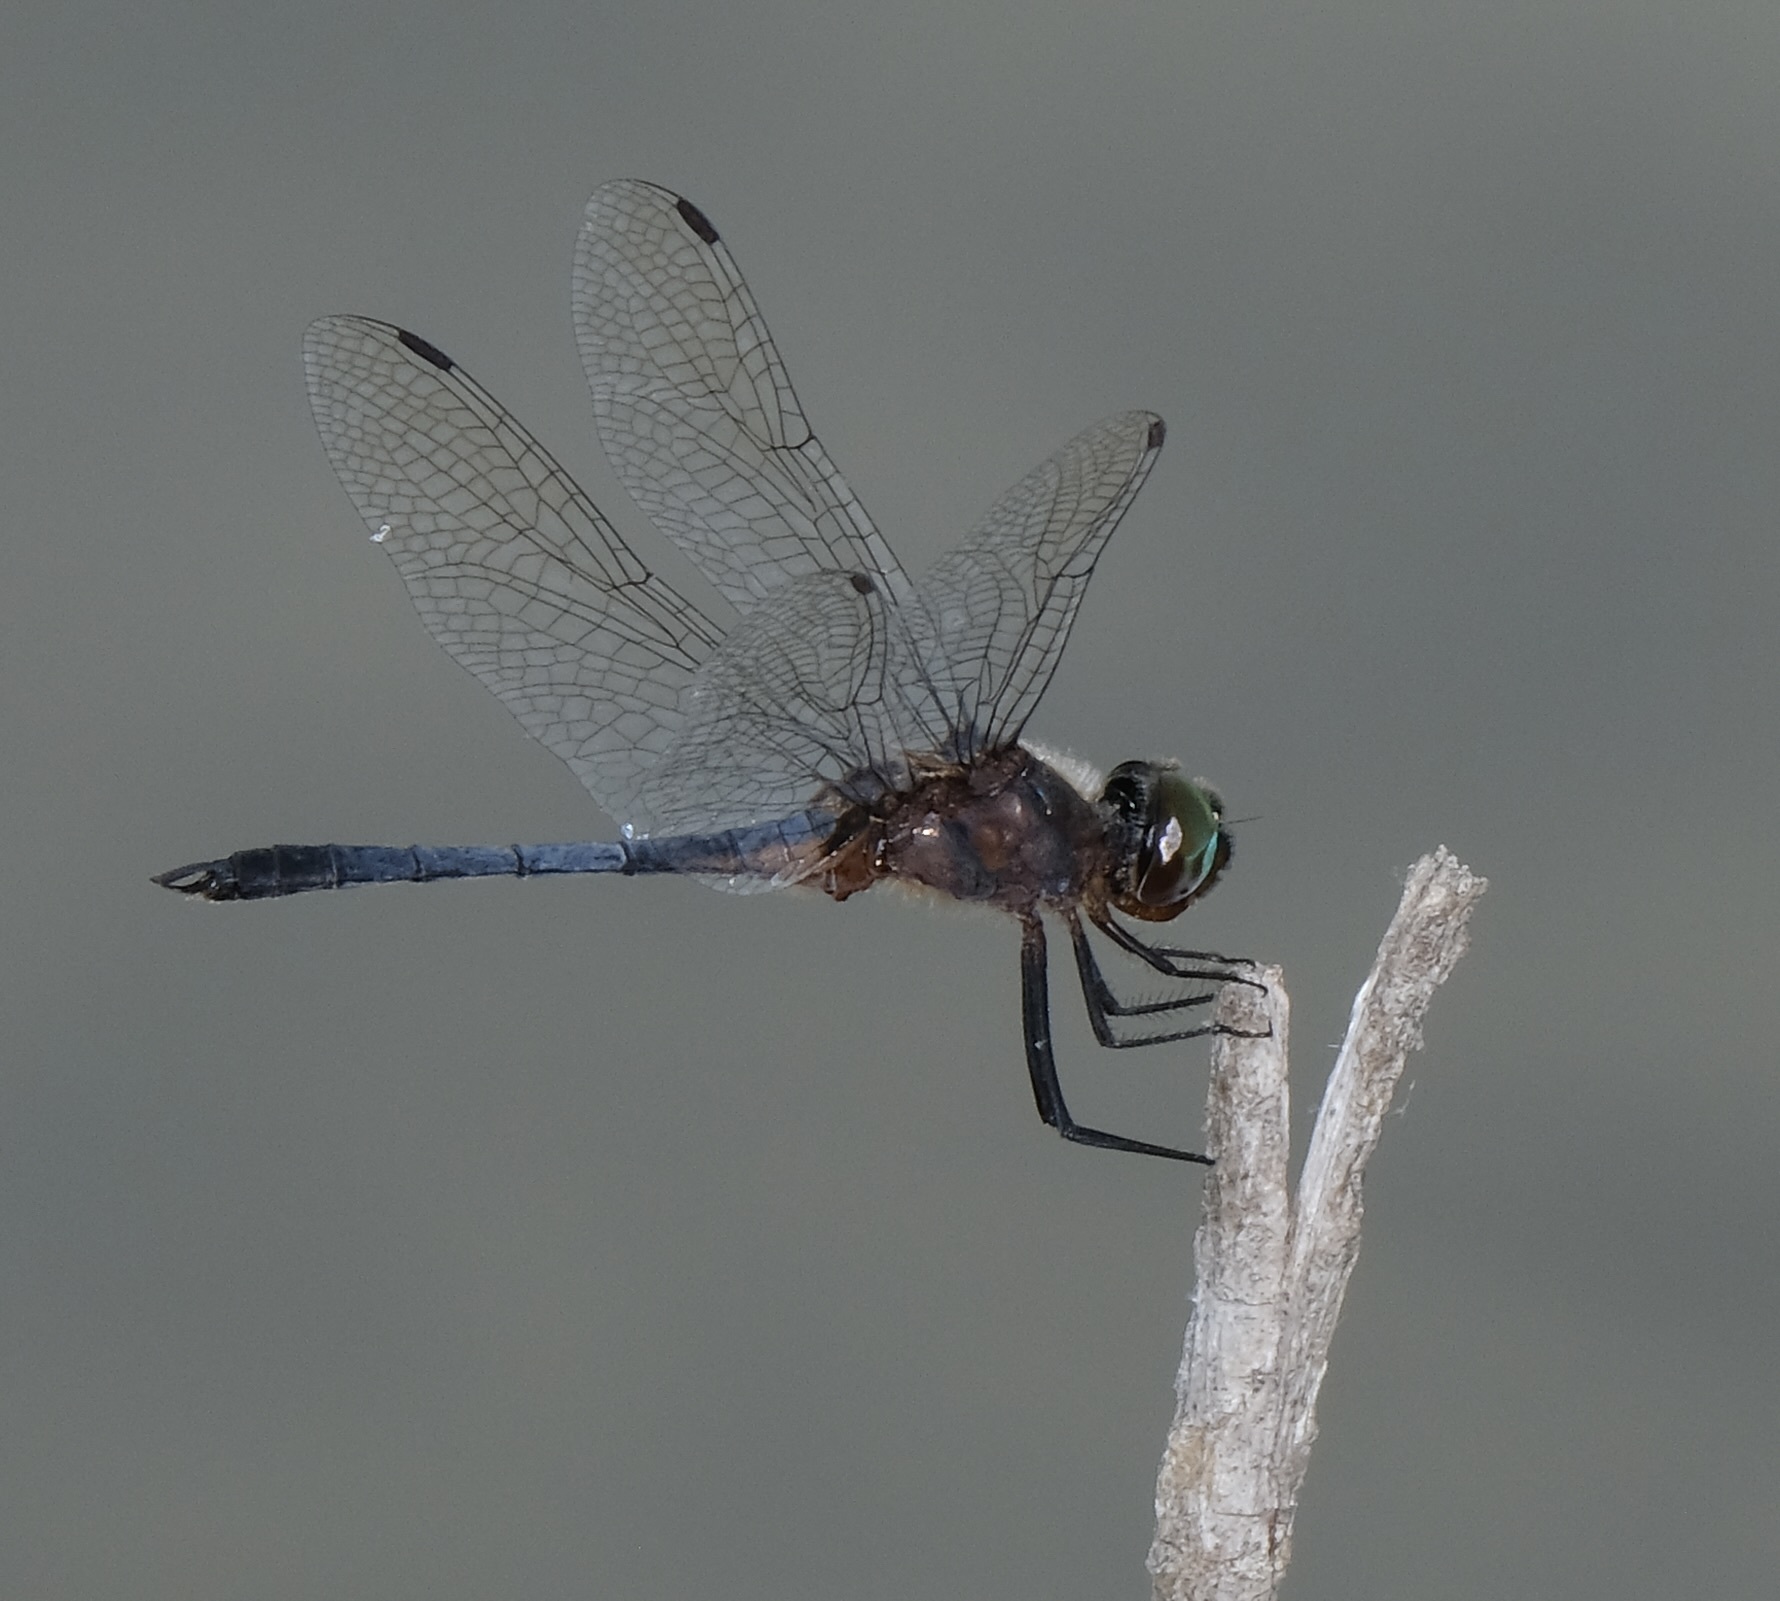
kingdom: Animalia
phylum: Arthropoda
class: Insecta
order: Odonata
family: Libellulidae
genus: Idiataphe
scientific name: Idiataphe cubensis
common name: Metallic pennant
